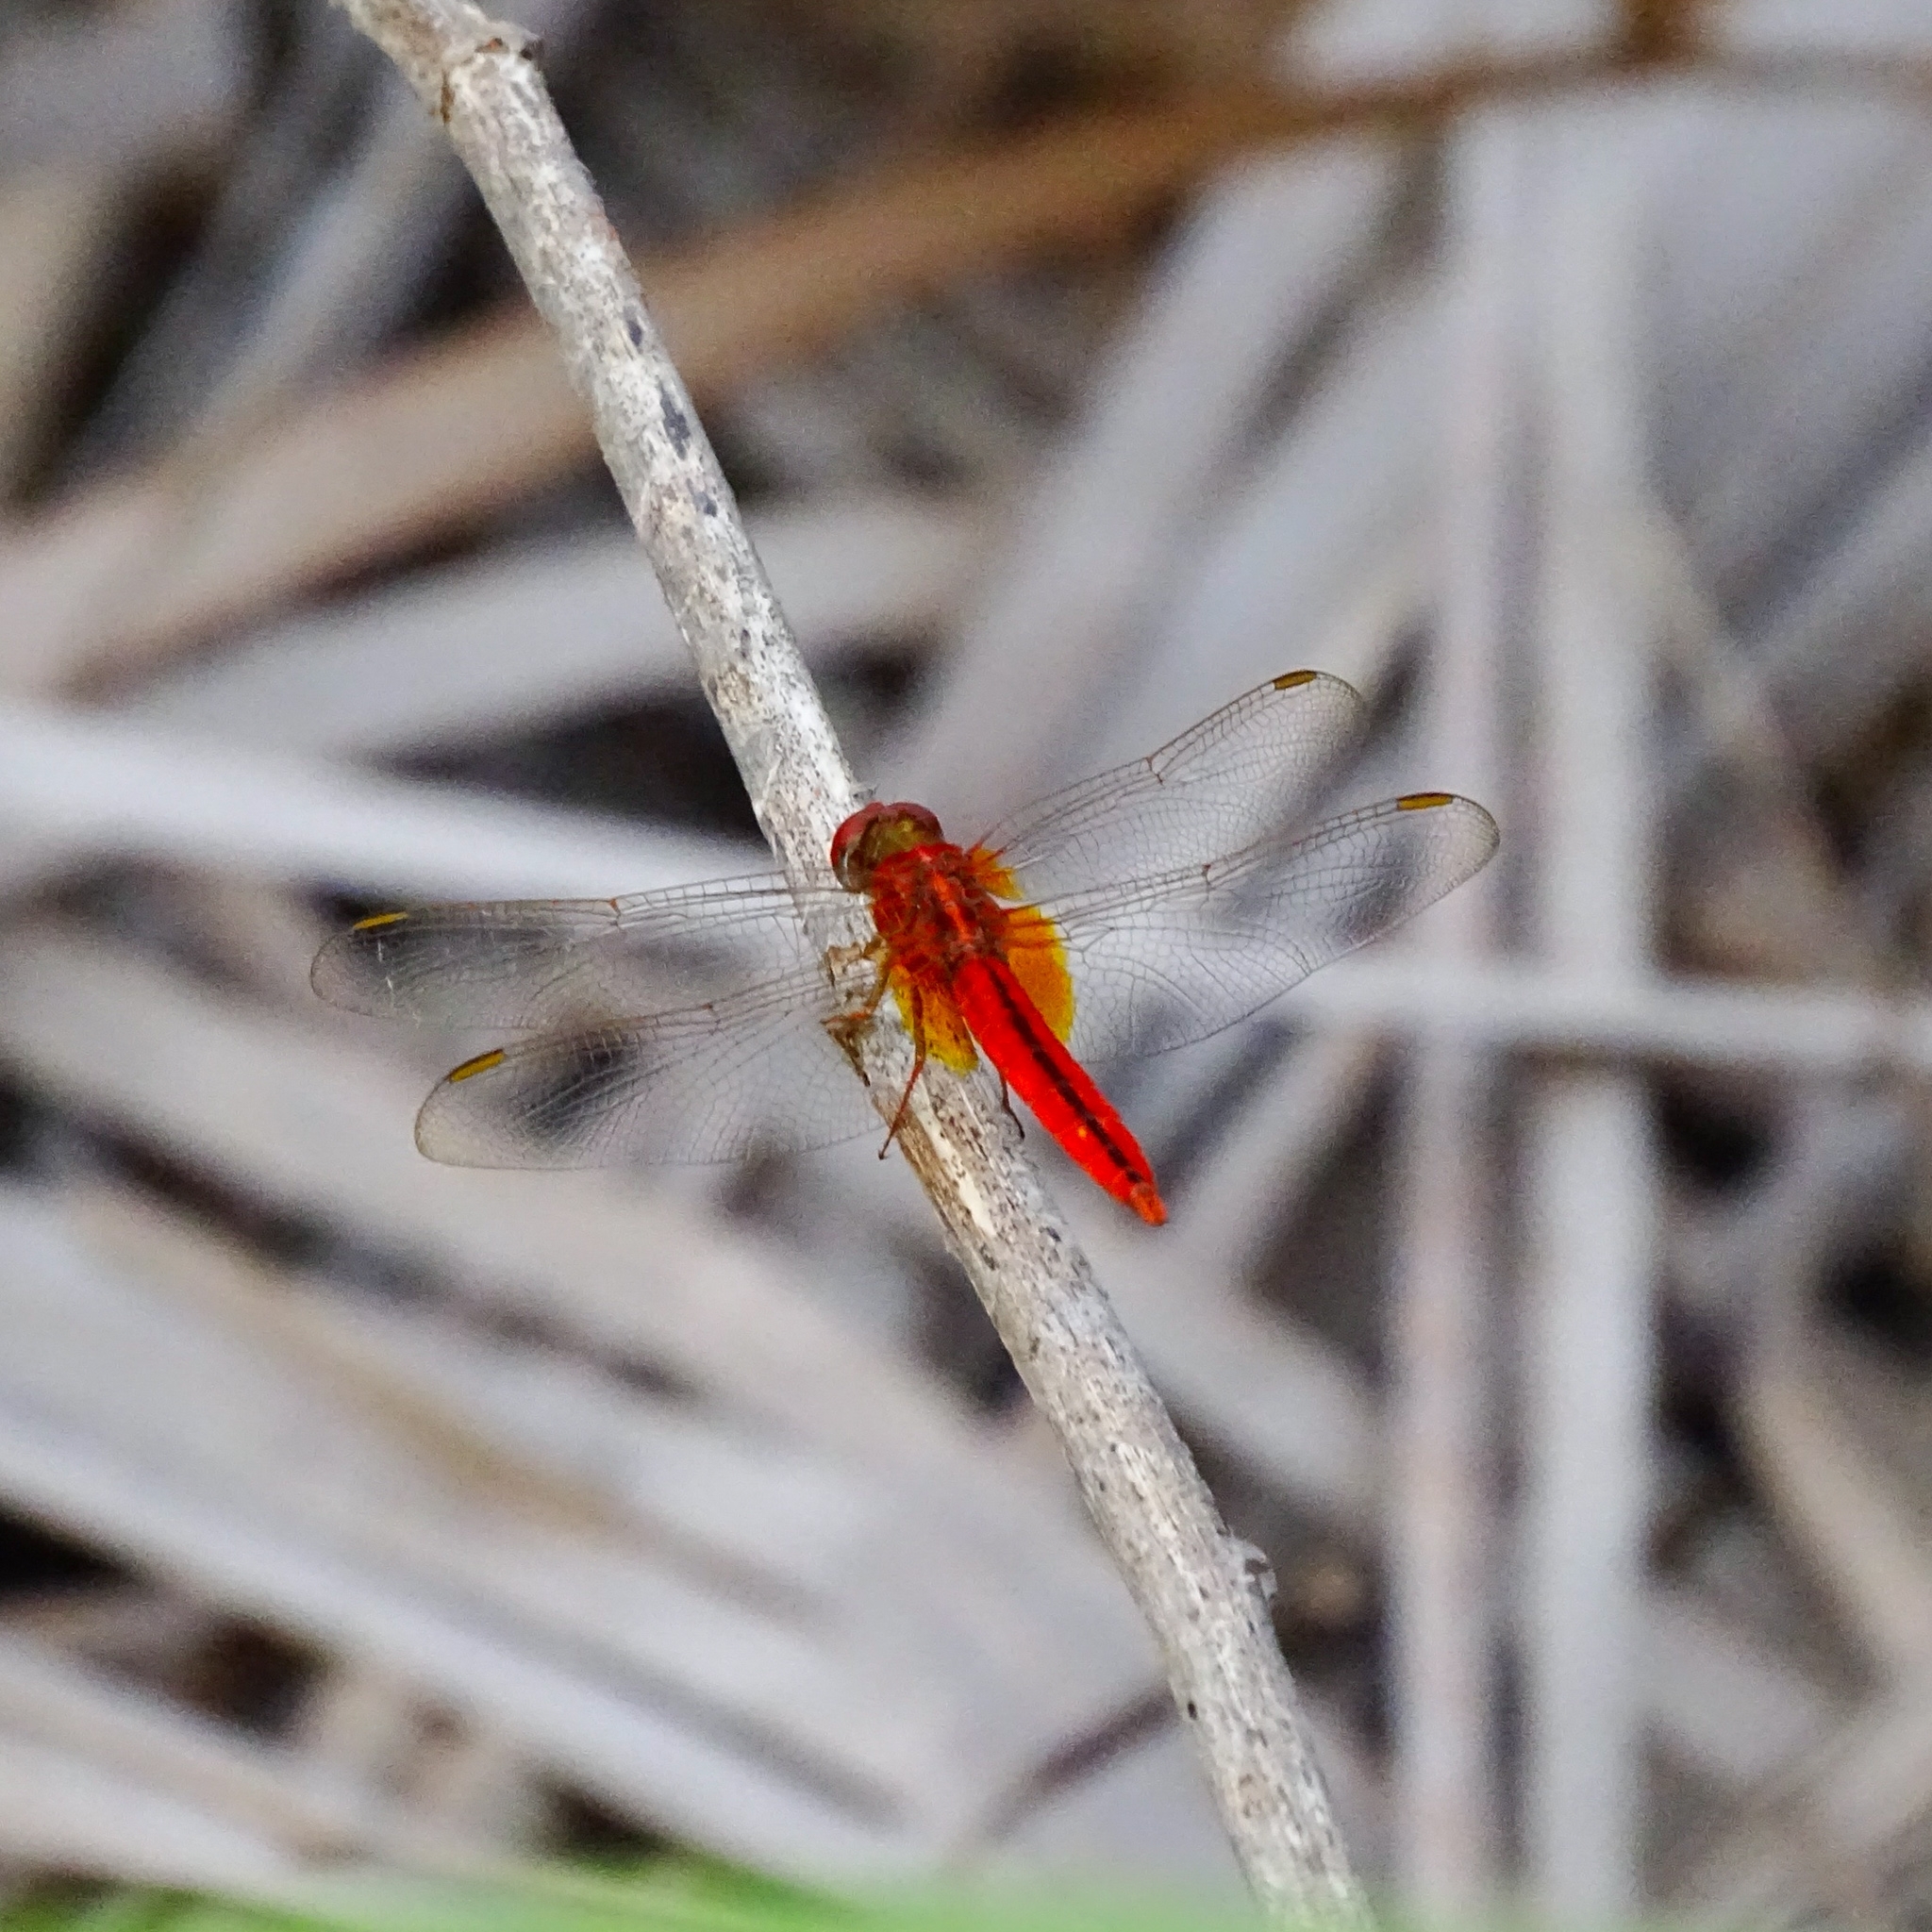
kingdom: Animalia
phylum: Arthropoda
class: Insecta
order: Odonata
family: Libellulidae
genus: Crocothemis
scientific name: Crocothemis servilia
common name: Scarlet skimmer
